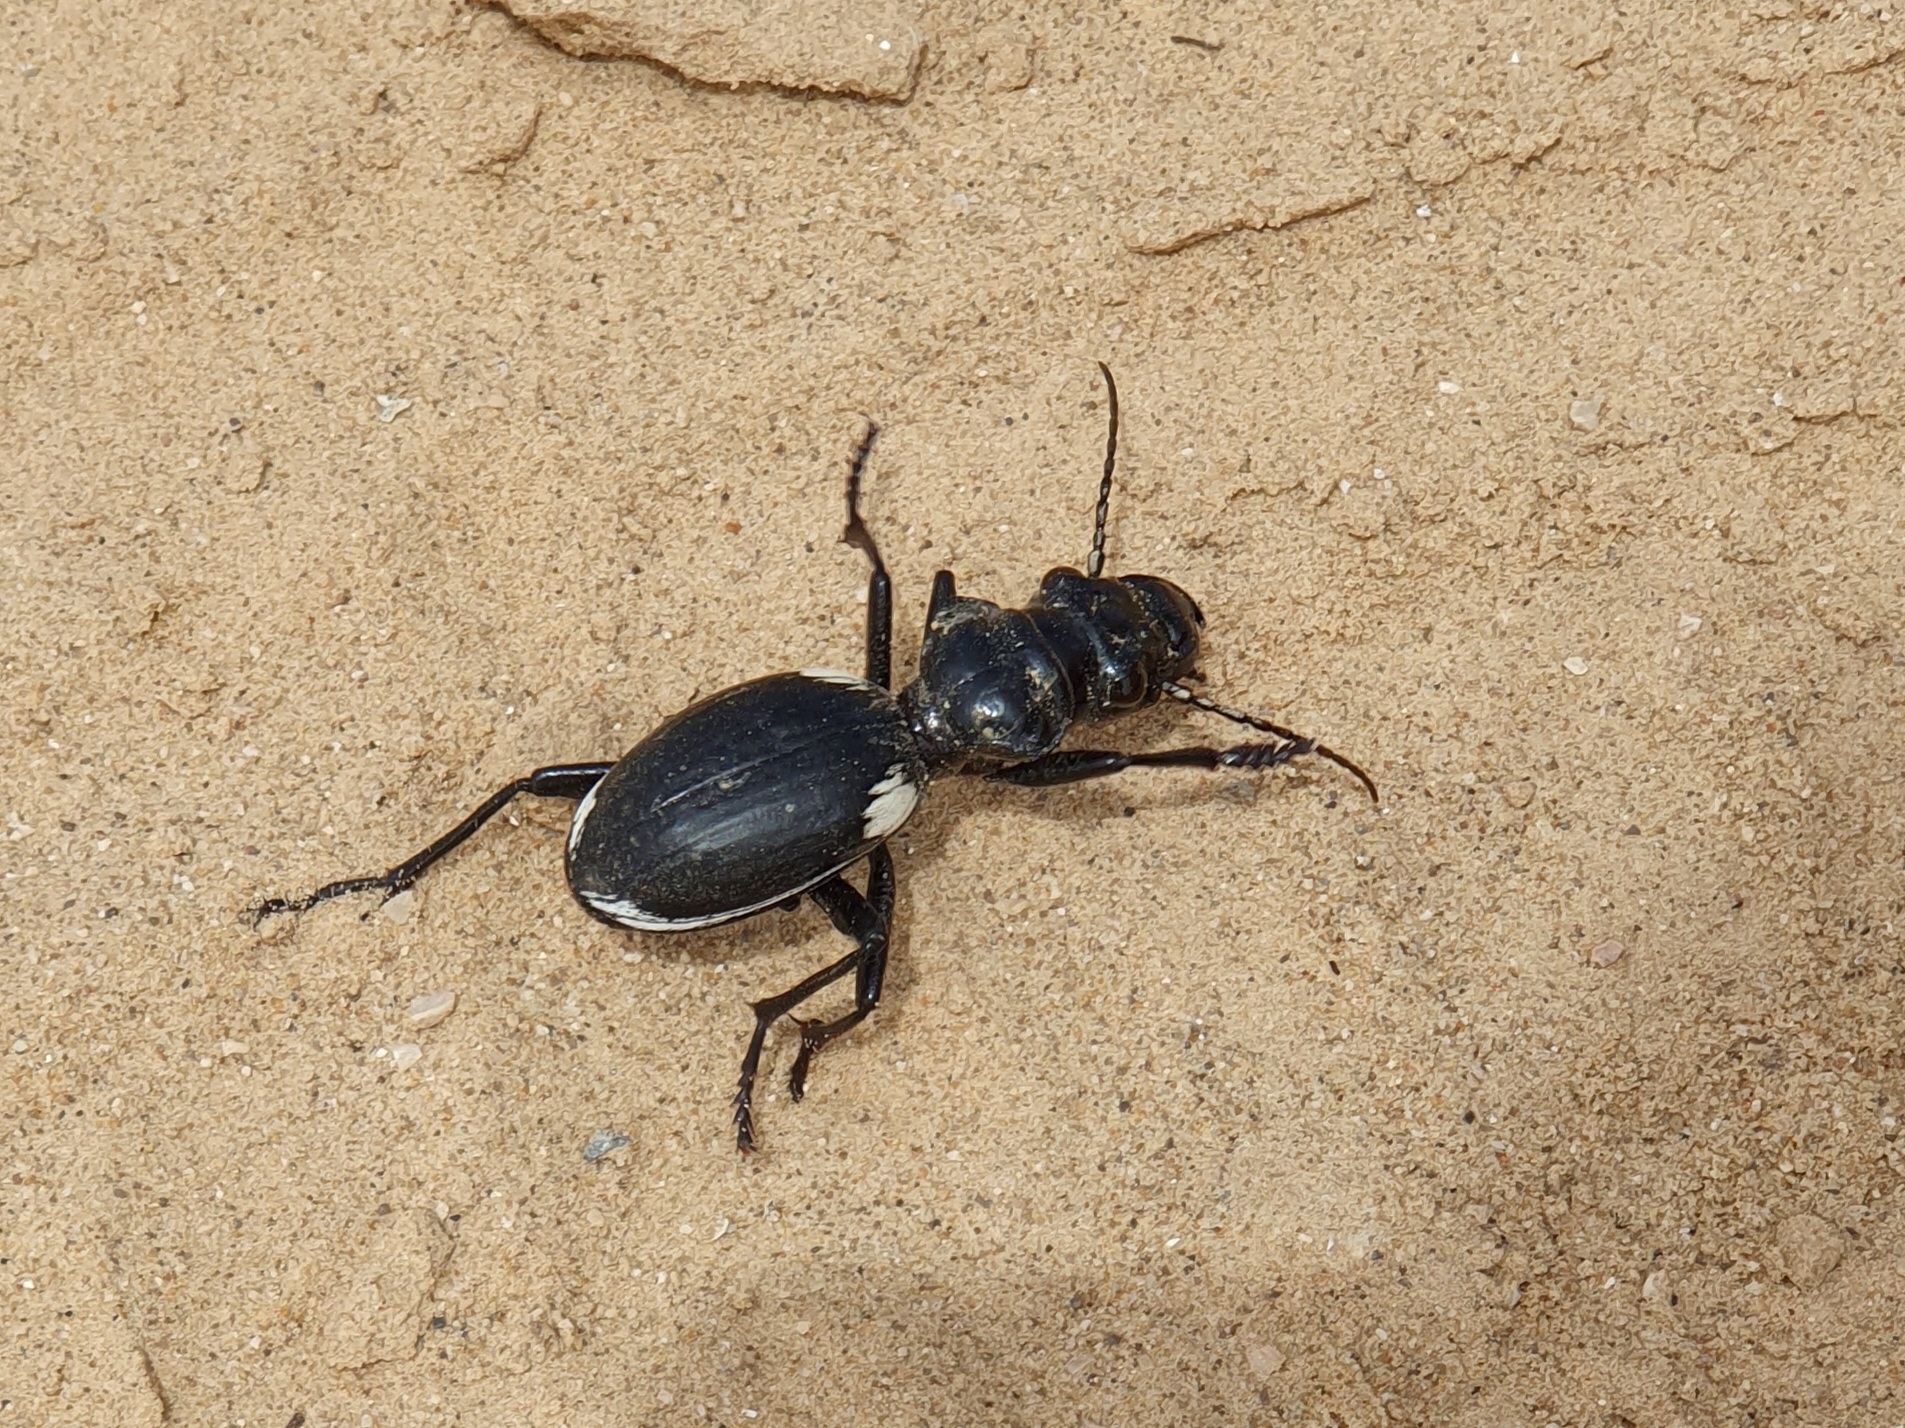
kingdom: Animalia
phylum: Arthropoda
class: Insecta
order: Coleoptera
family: Carabidae
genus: Anthia
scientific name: Anthia venator
